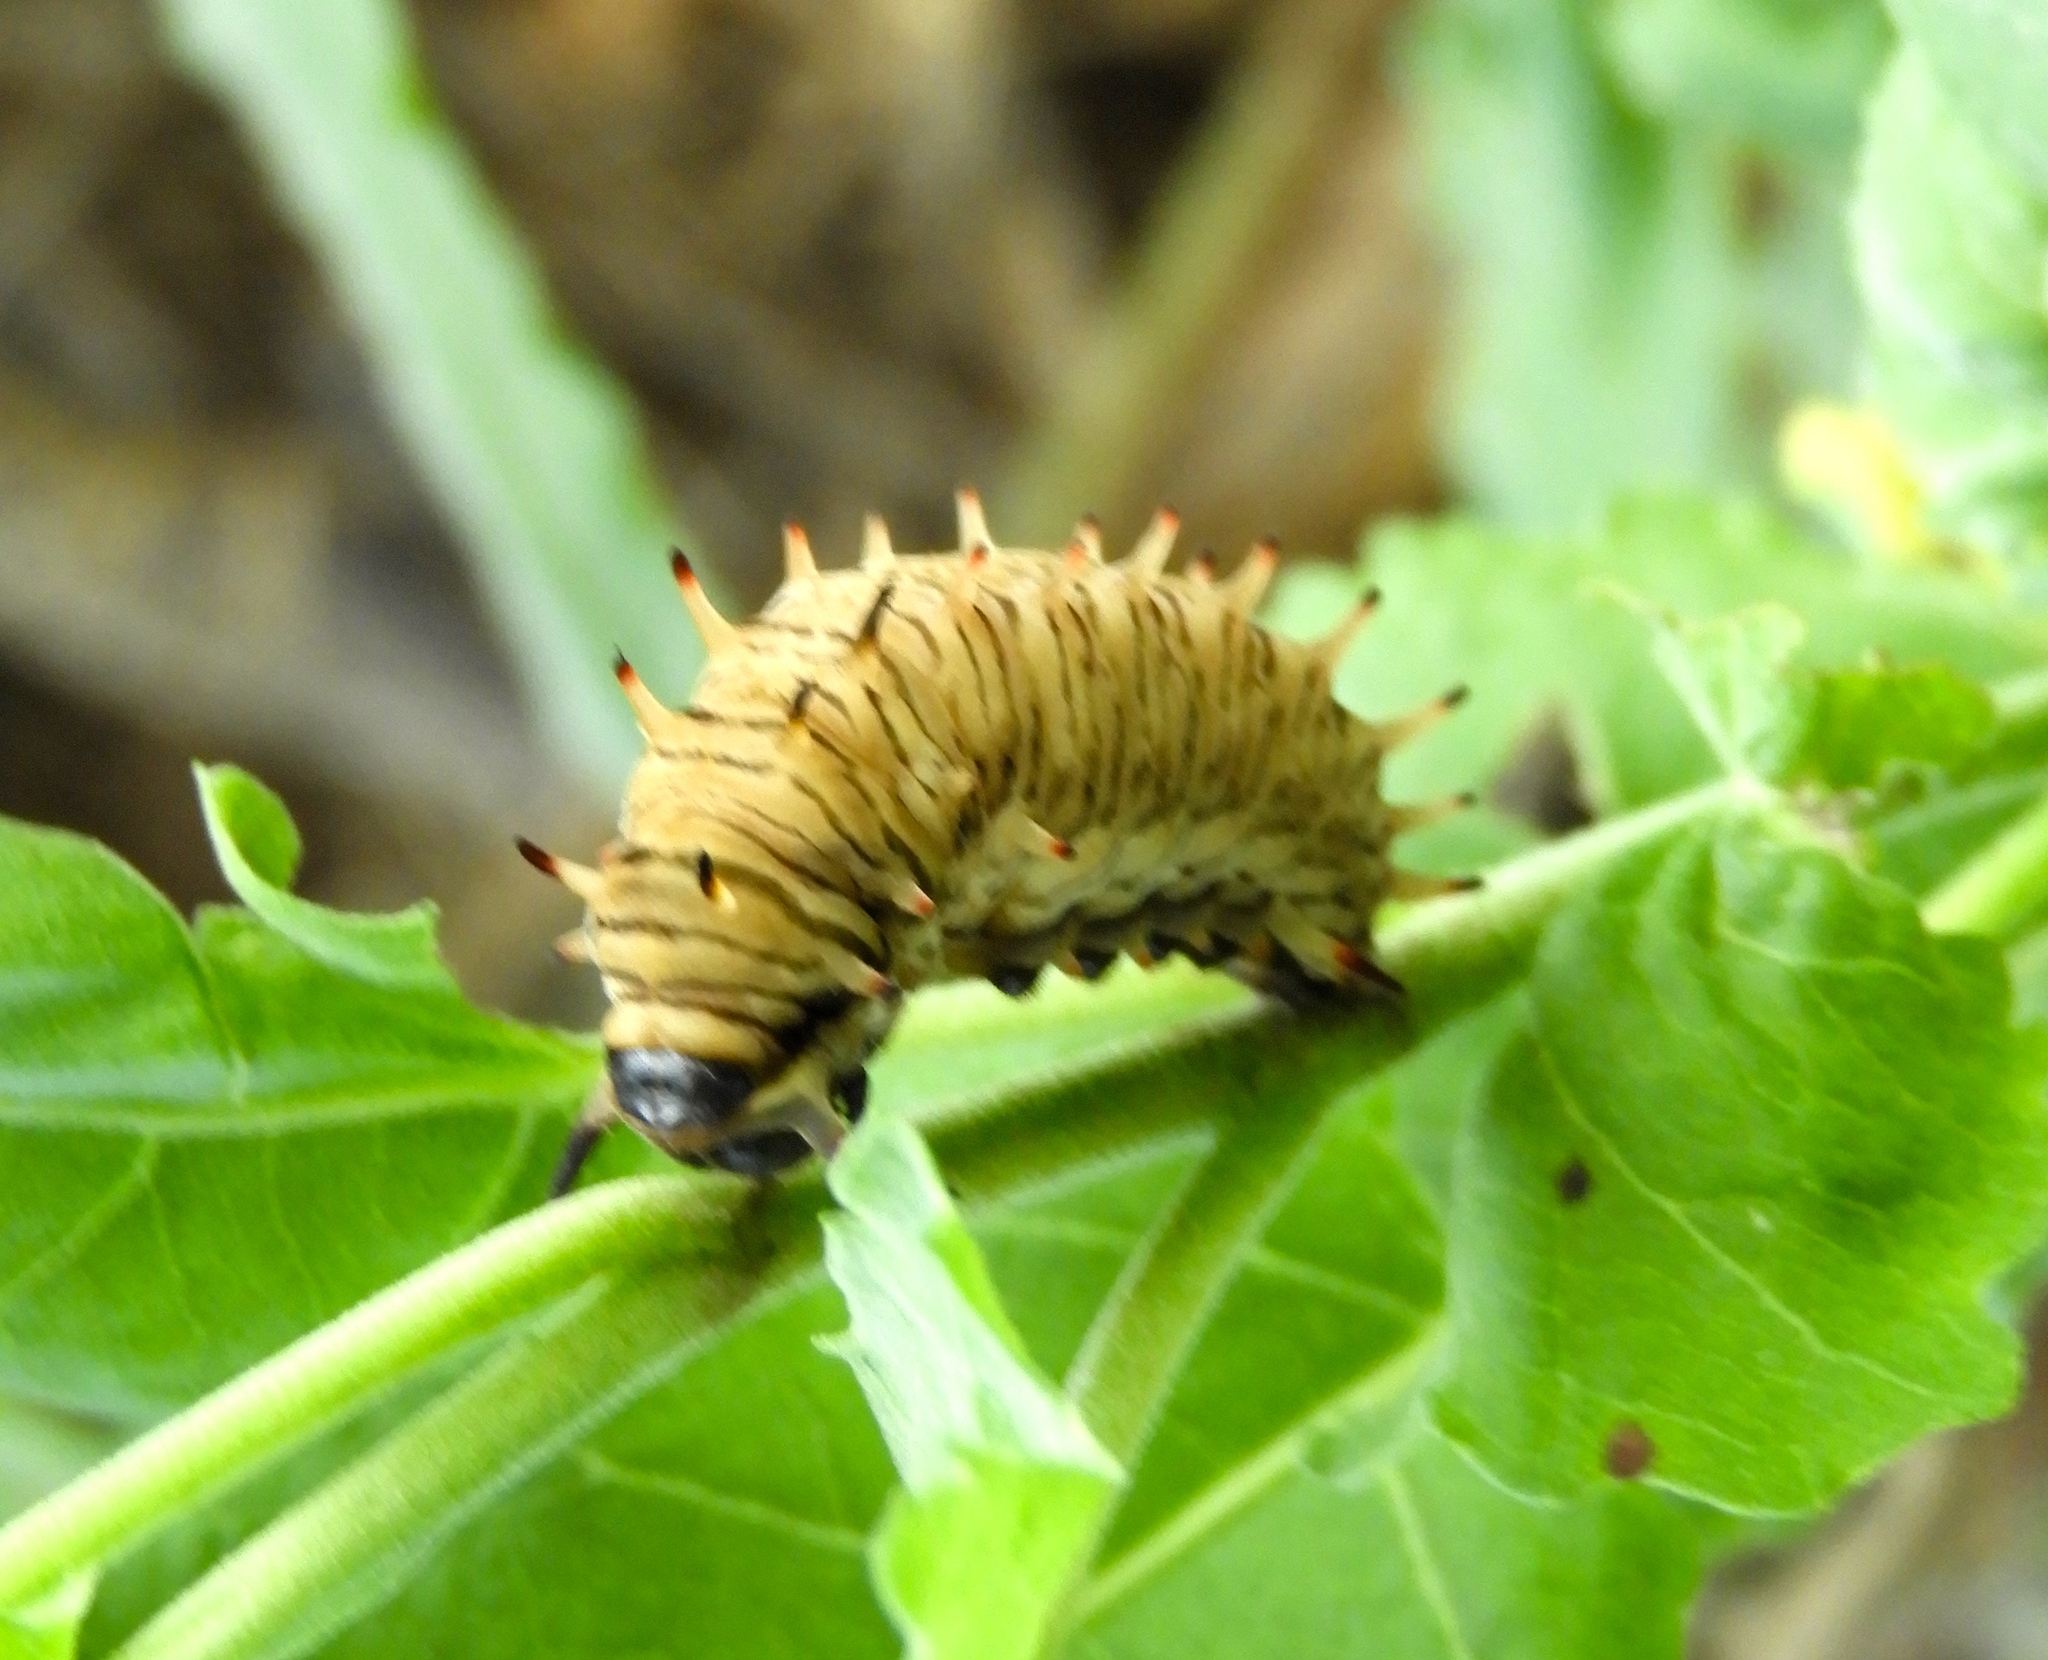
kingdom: Animalia
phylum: Arthropoda
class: Insecta
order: Lepidoptera
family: Papilionidae
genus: Battus
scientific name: Battus polydamas
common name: Polydamas swallowtail
